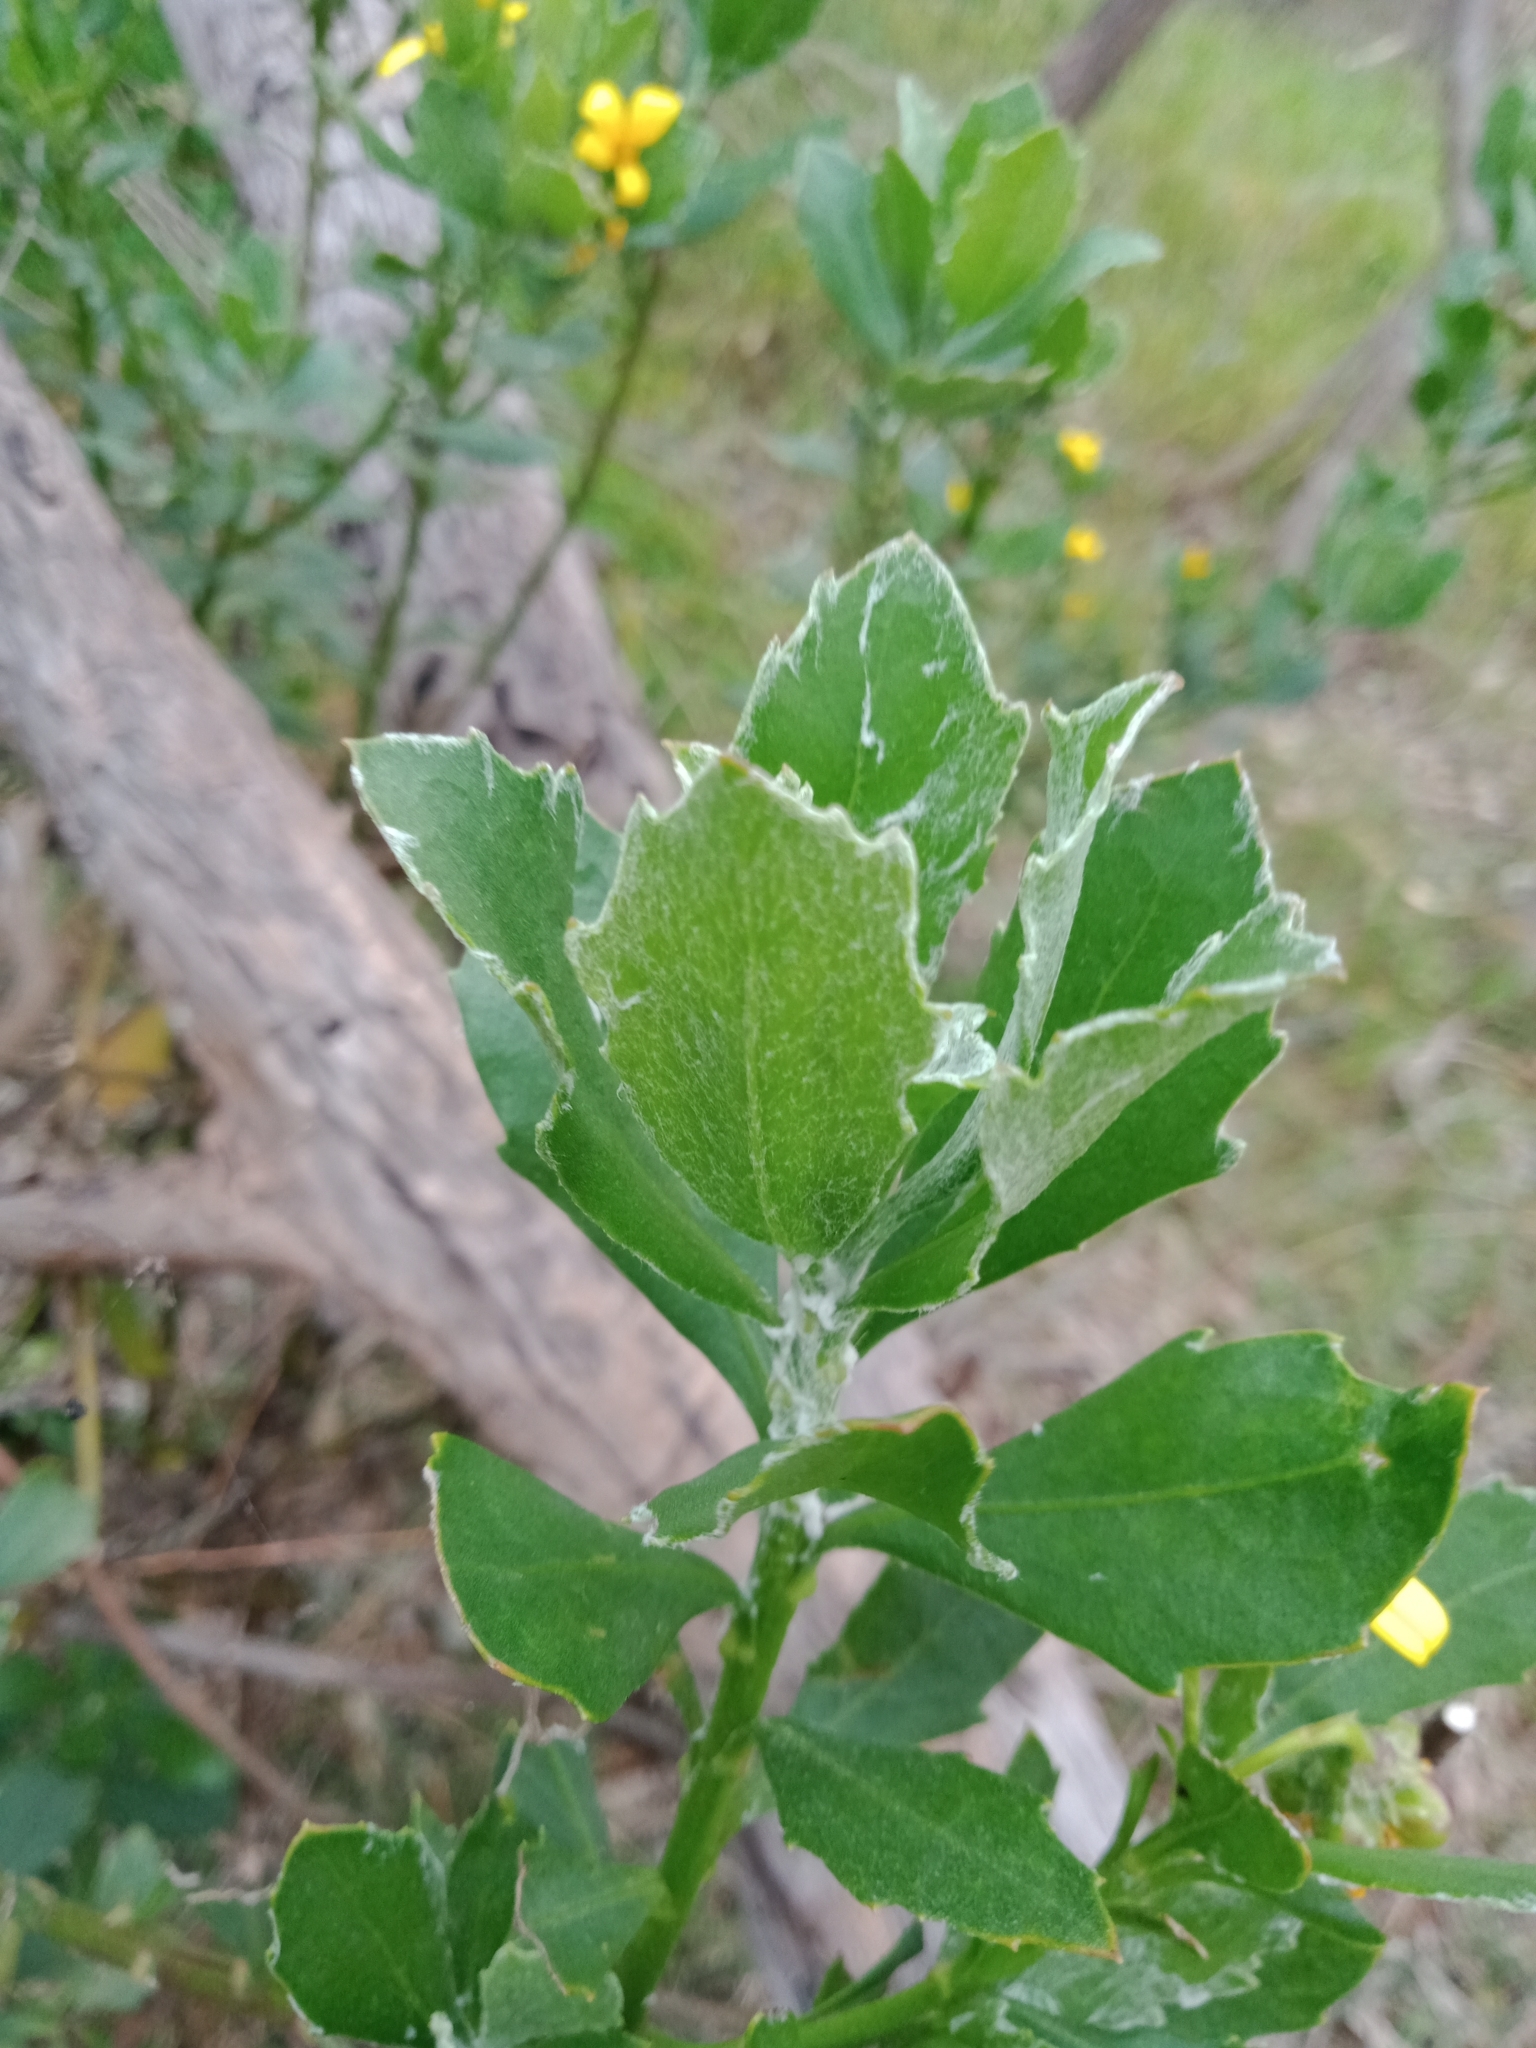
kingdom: Plantae
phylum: Tracheophyta
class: Magnoliopsida
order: Asterales
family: Asteraceae
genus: Osteospermum
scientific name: Osteospermum moniliferum
